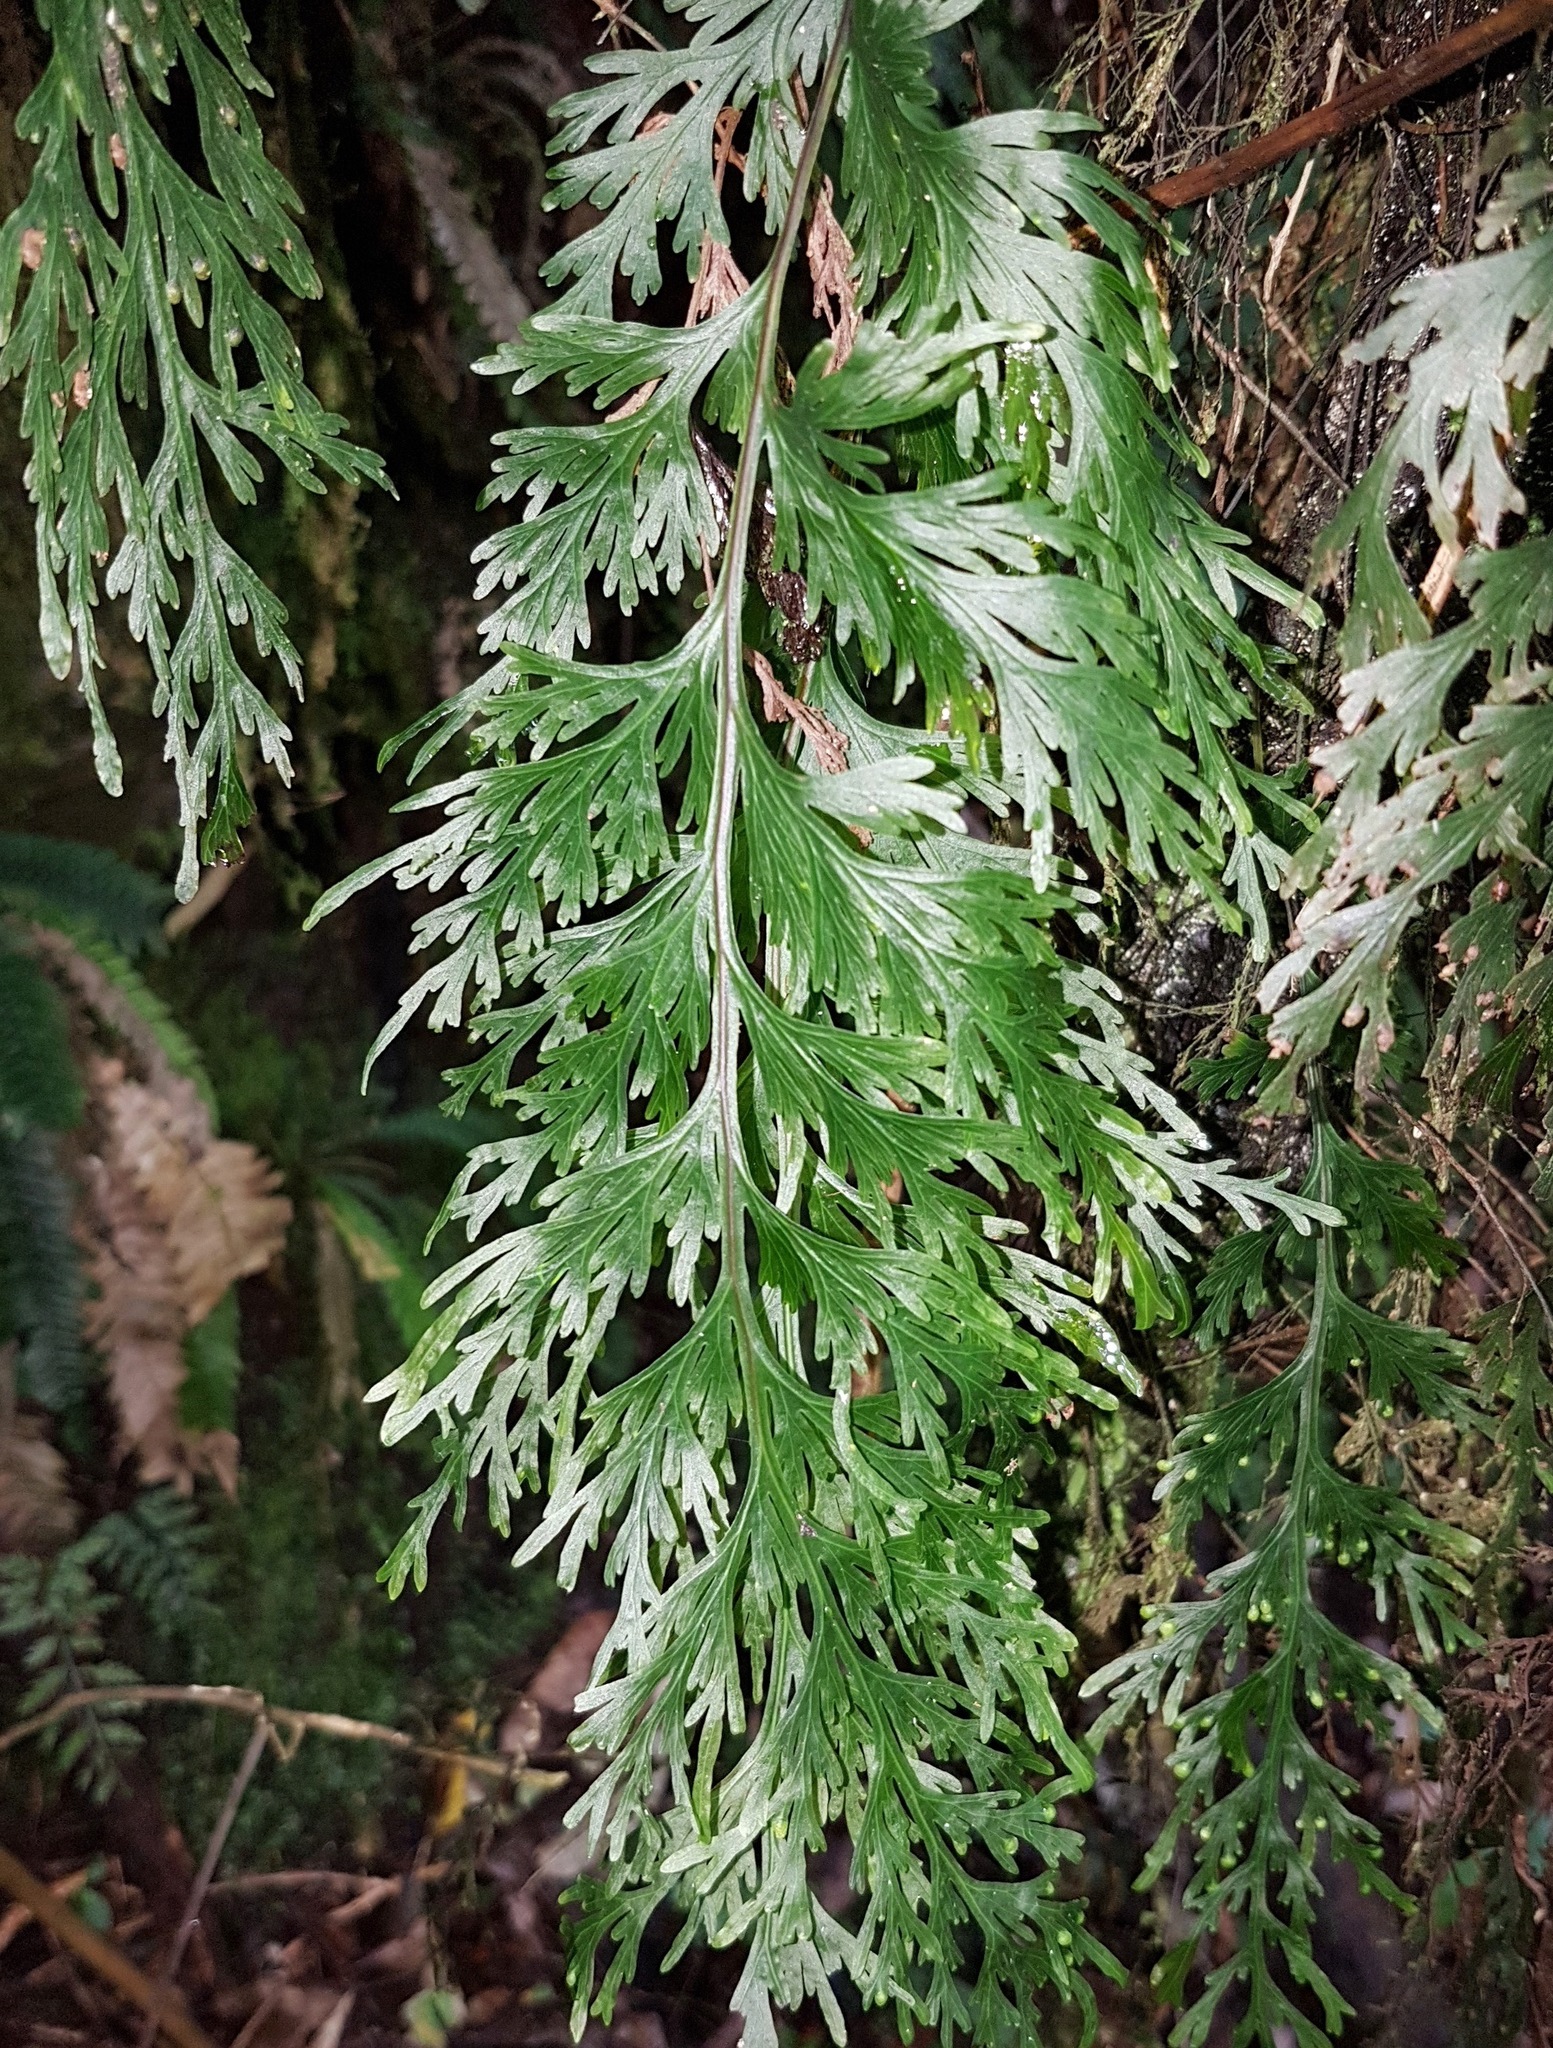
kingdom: Plantae
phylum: Tracheophyta
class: Polypodiopsida
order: Hymenophyllales
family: Hymenophyllaceae
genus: Hymenophyllum
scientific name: Hymenophyllum dilatatum
